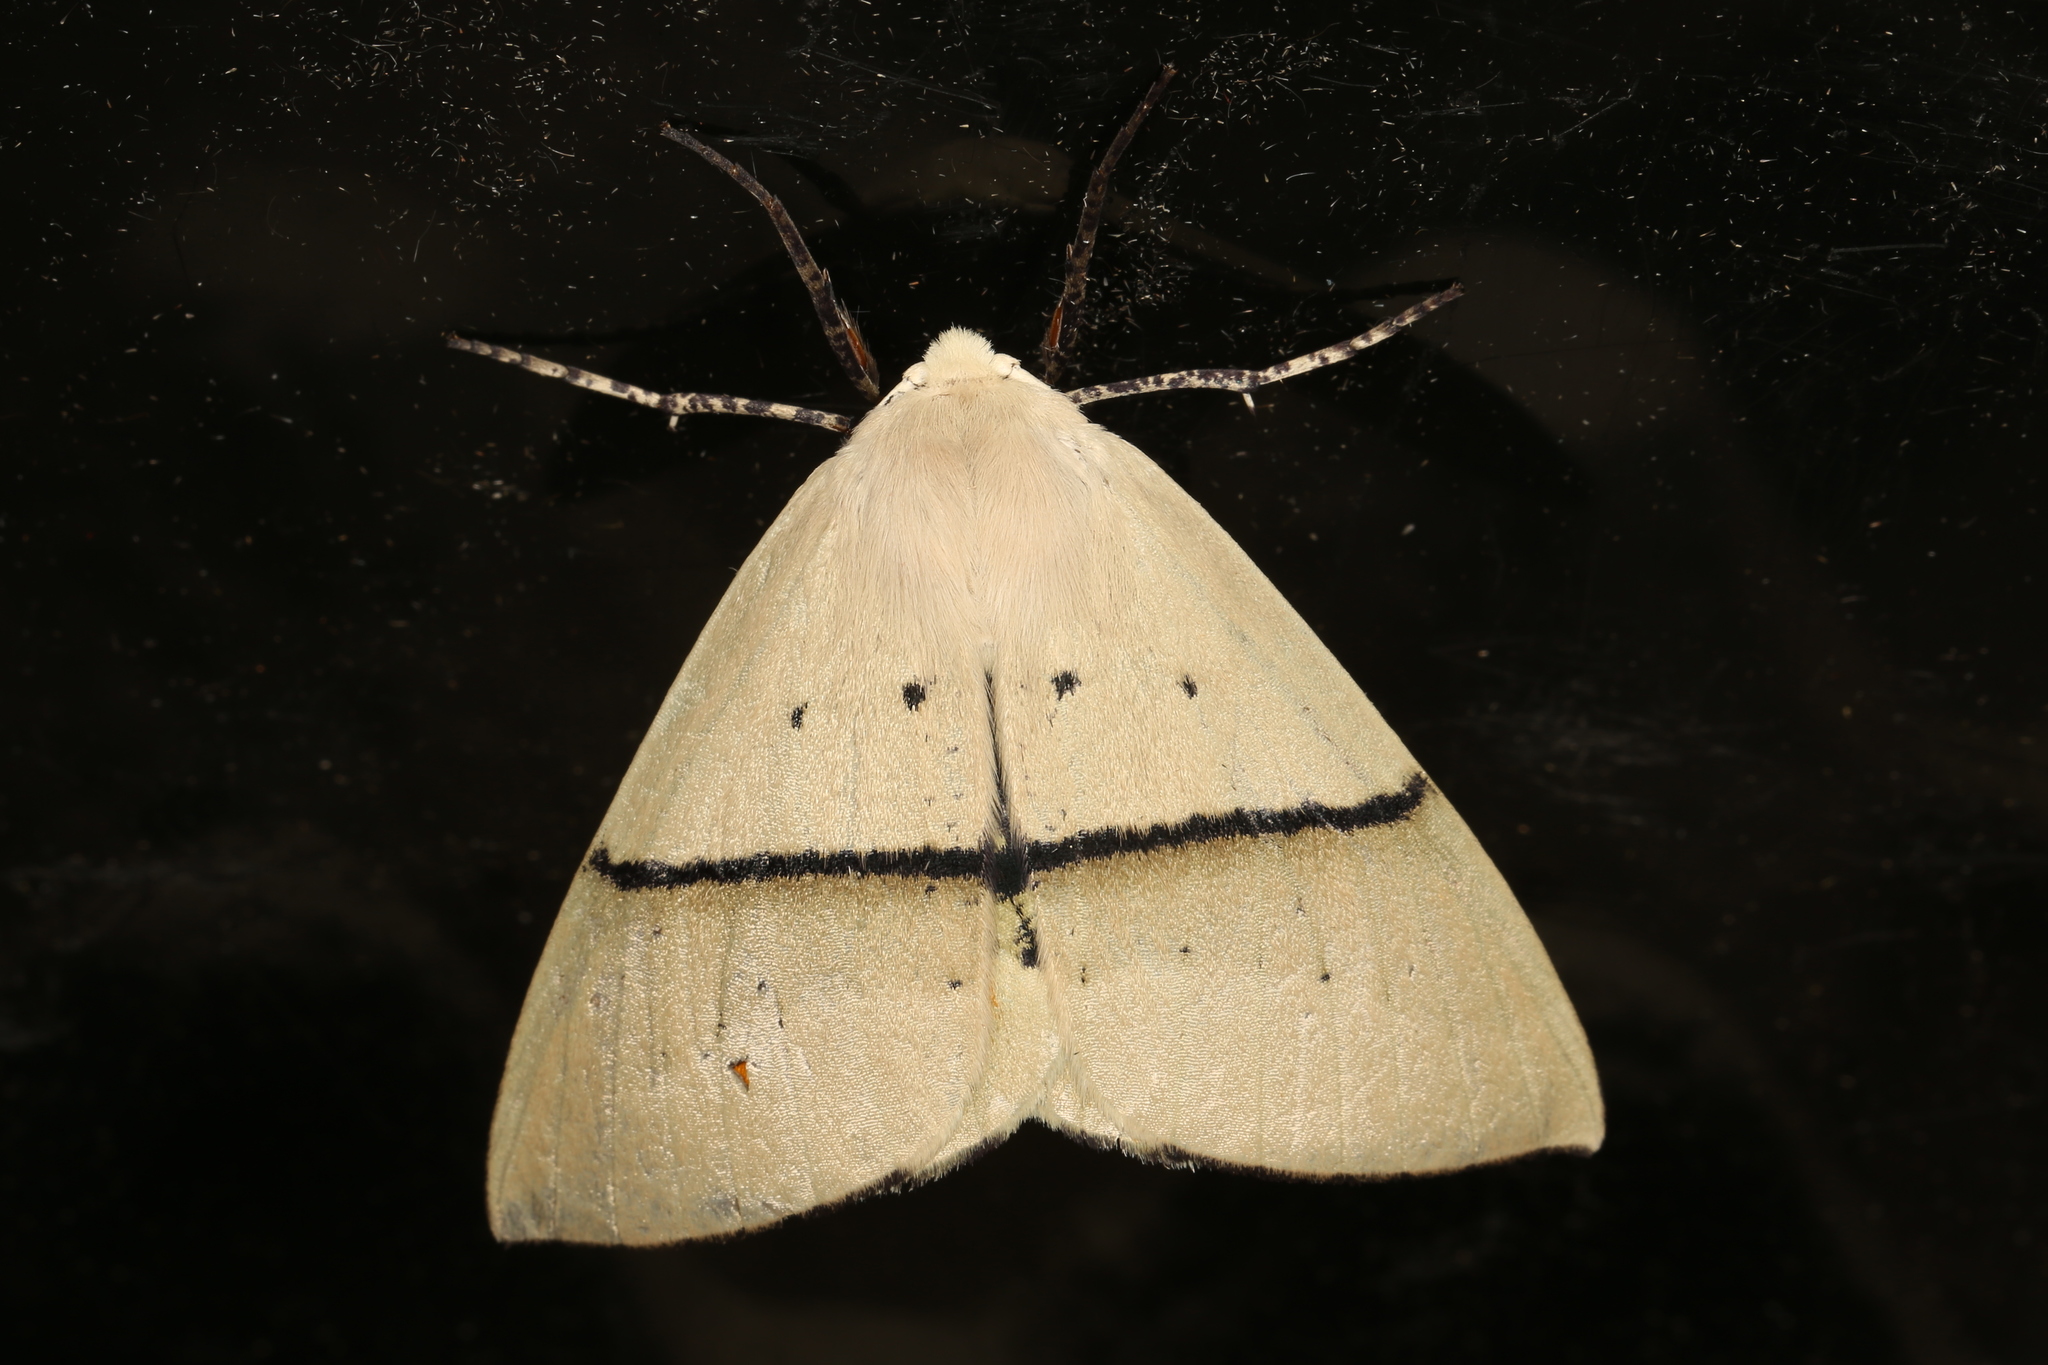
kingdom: Animalia
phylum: Arthropoda
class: Insecta
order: Lepidoptera
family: Geometridae
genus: Gastrophora
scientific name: Gastrophora henricaria
